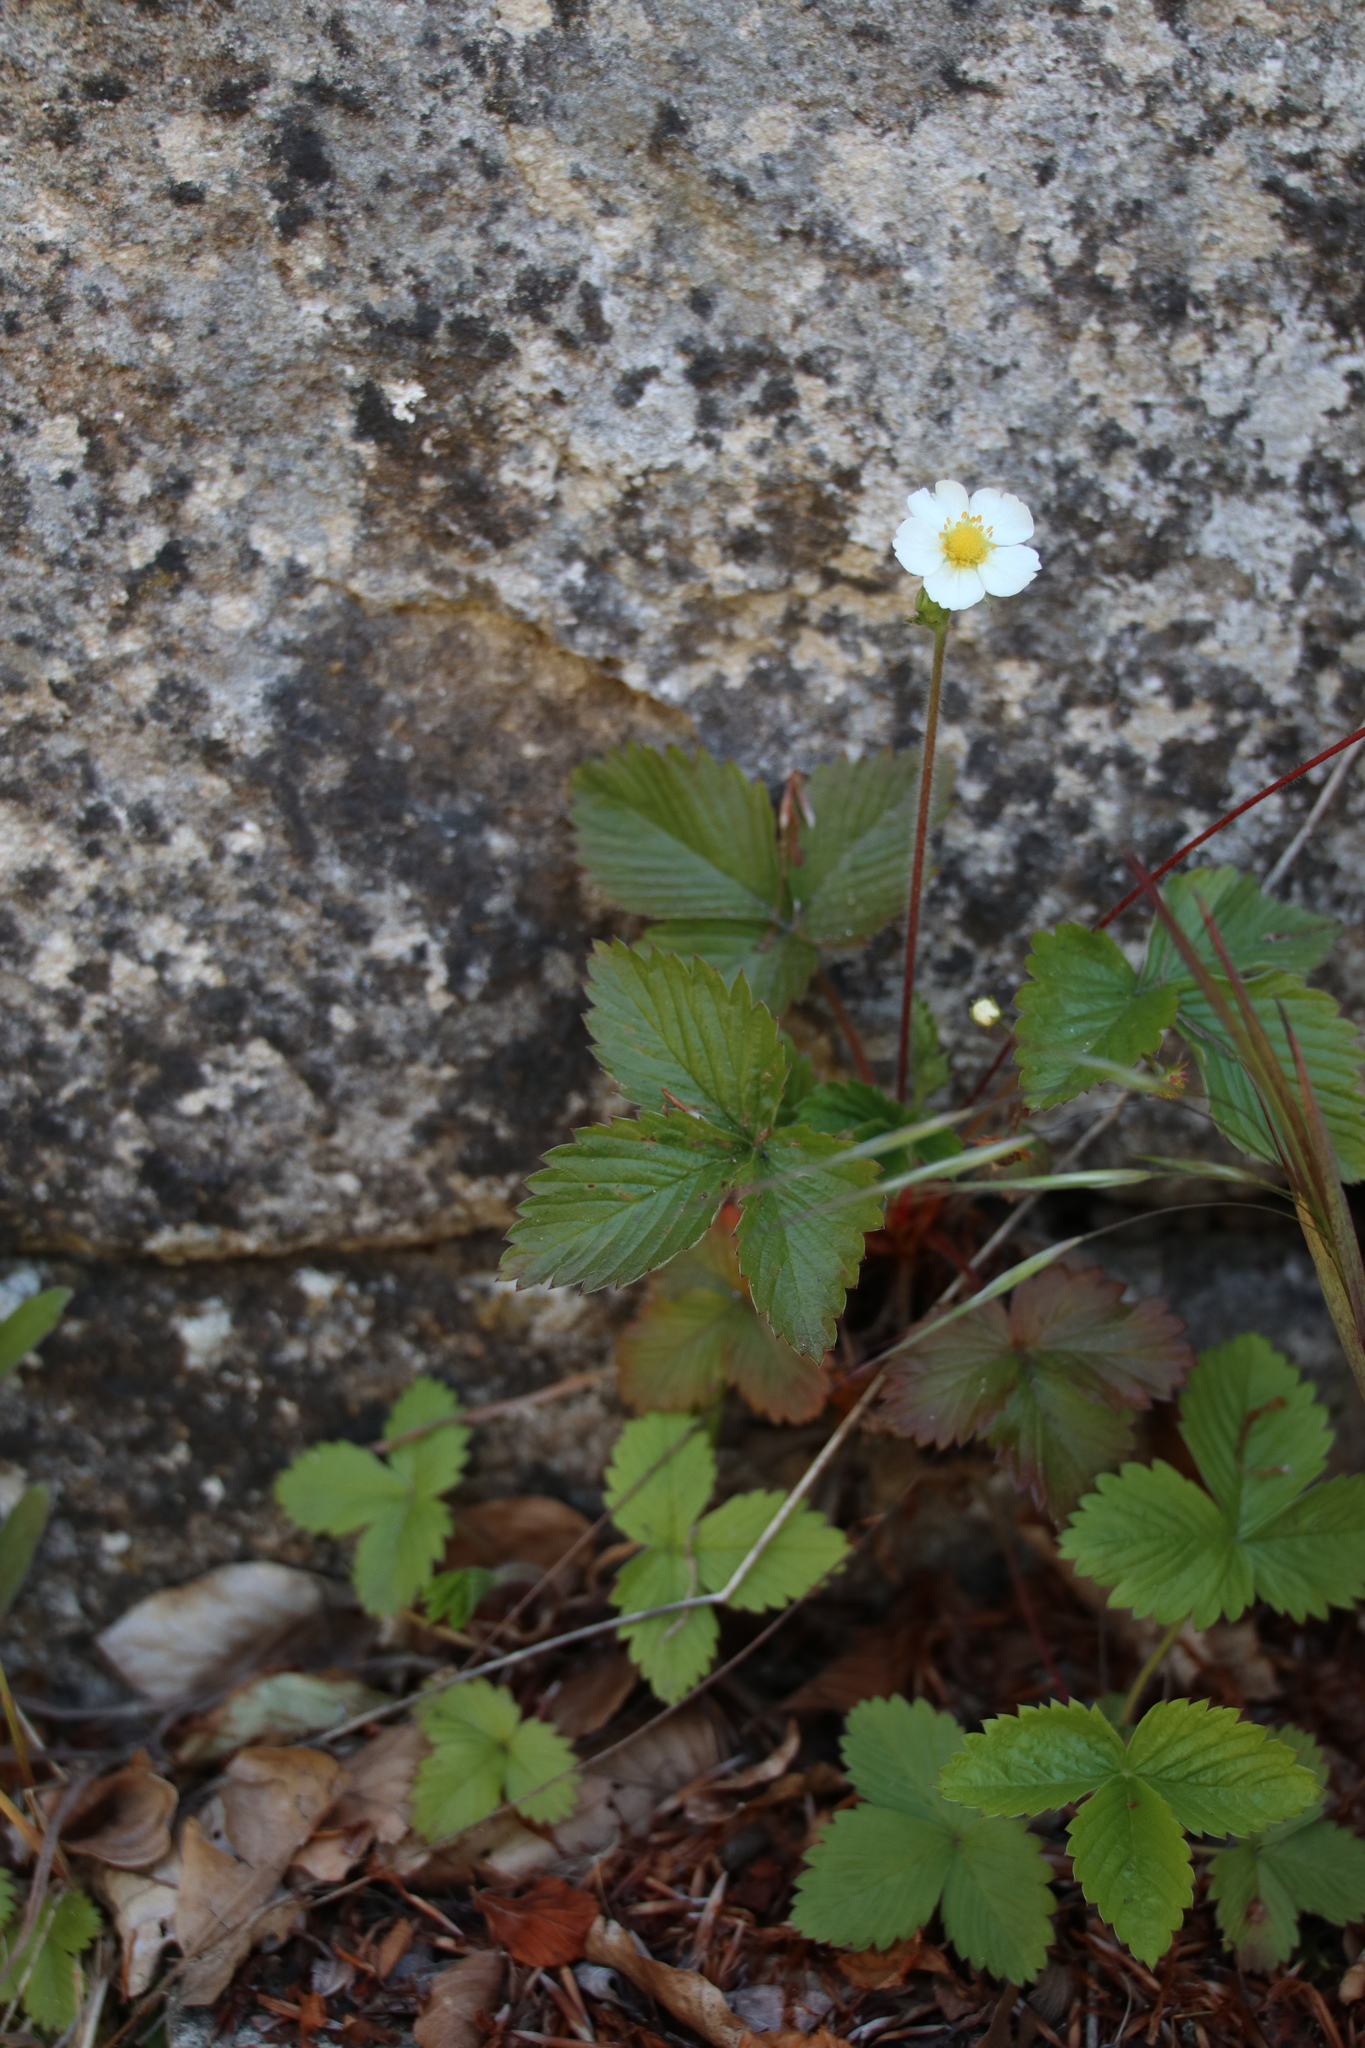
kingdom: Plantae
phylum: Tracheophyta
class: Magnoliopsida
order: Rosales
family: Rosaceae
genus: Fragaria
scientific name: Fragaria vesca
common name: Wild strawberry
